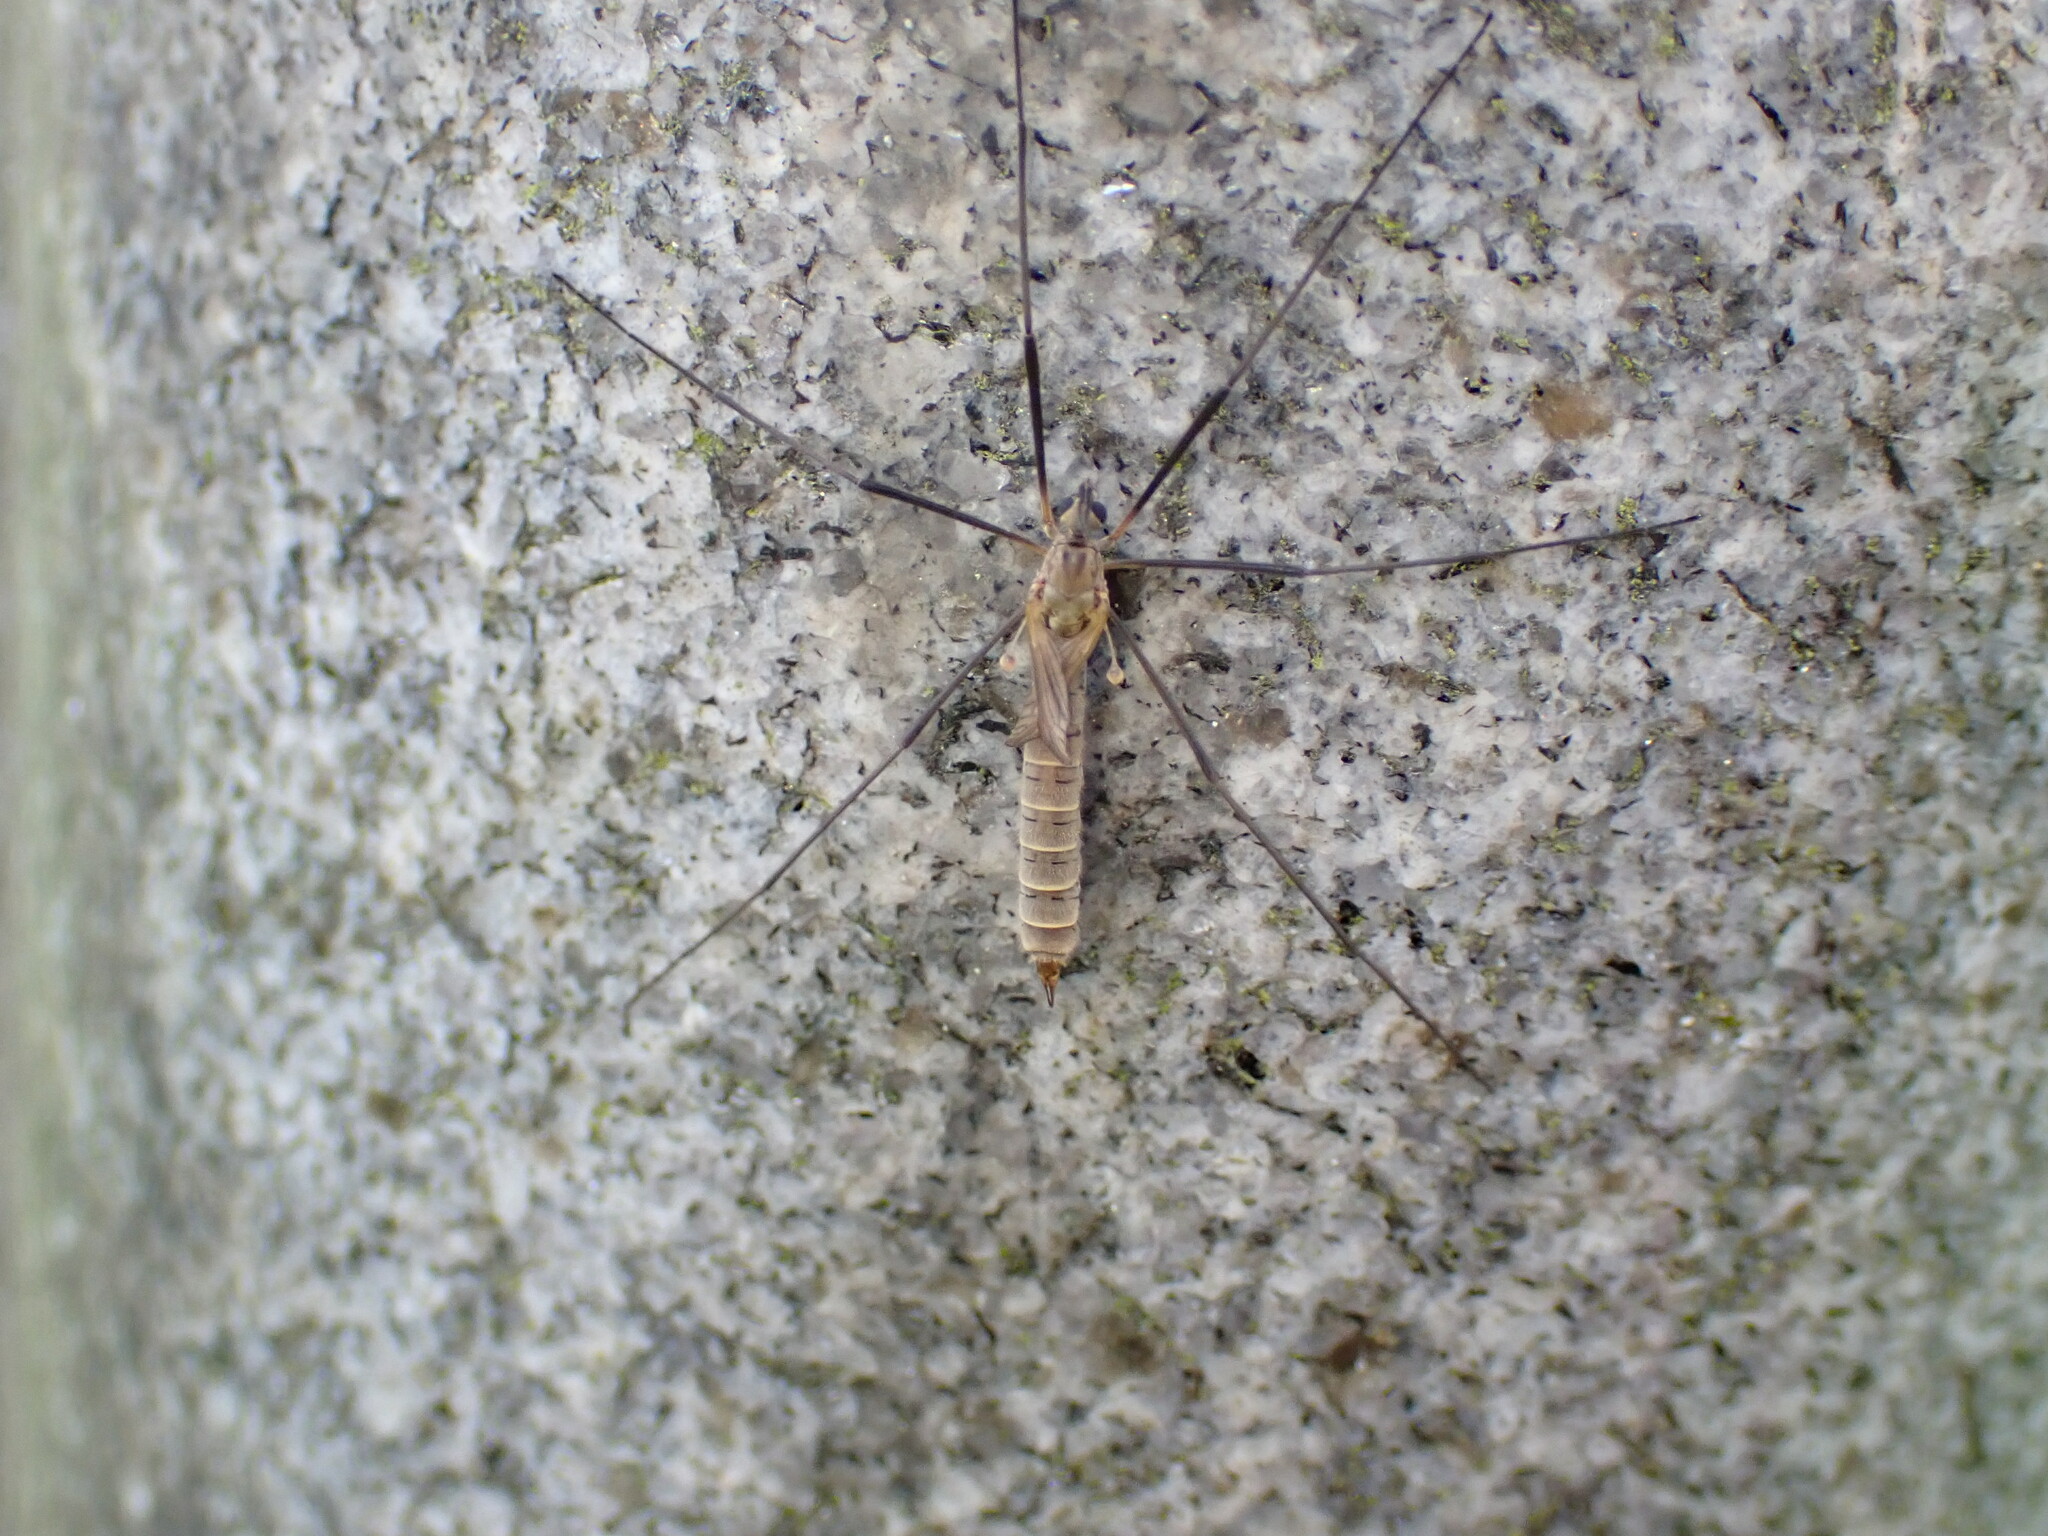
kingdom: Animalia
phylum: Arthropoda
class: Insecta
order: Diptera
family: Tipulidae
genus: Tipula
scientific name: Tipula pagana
